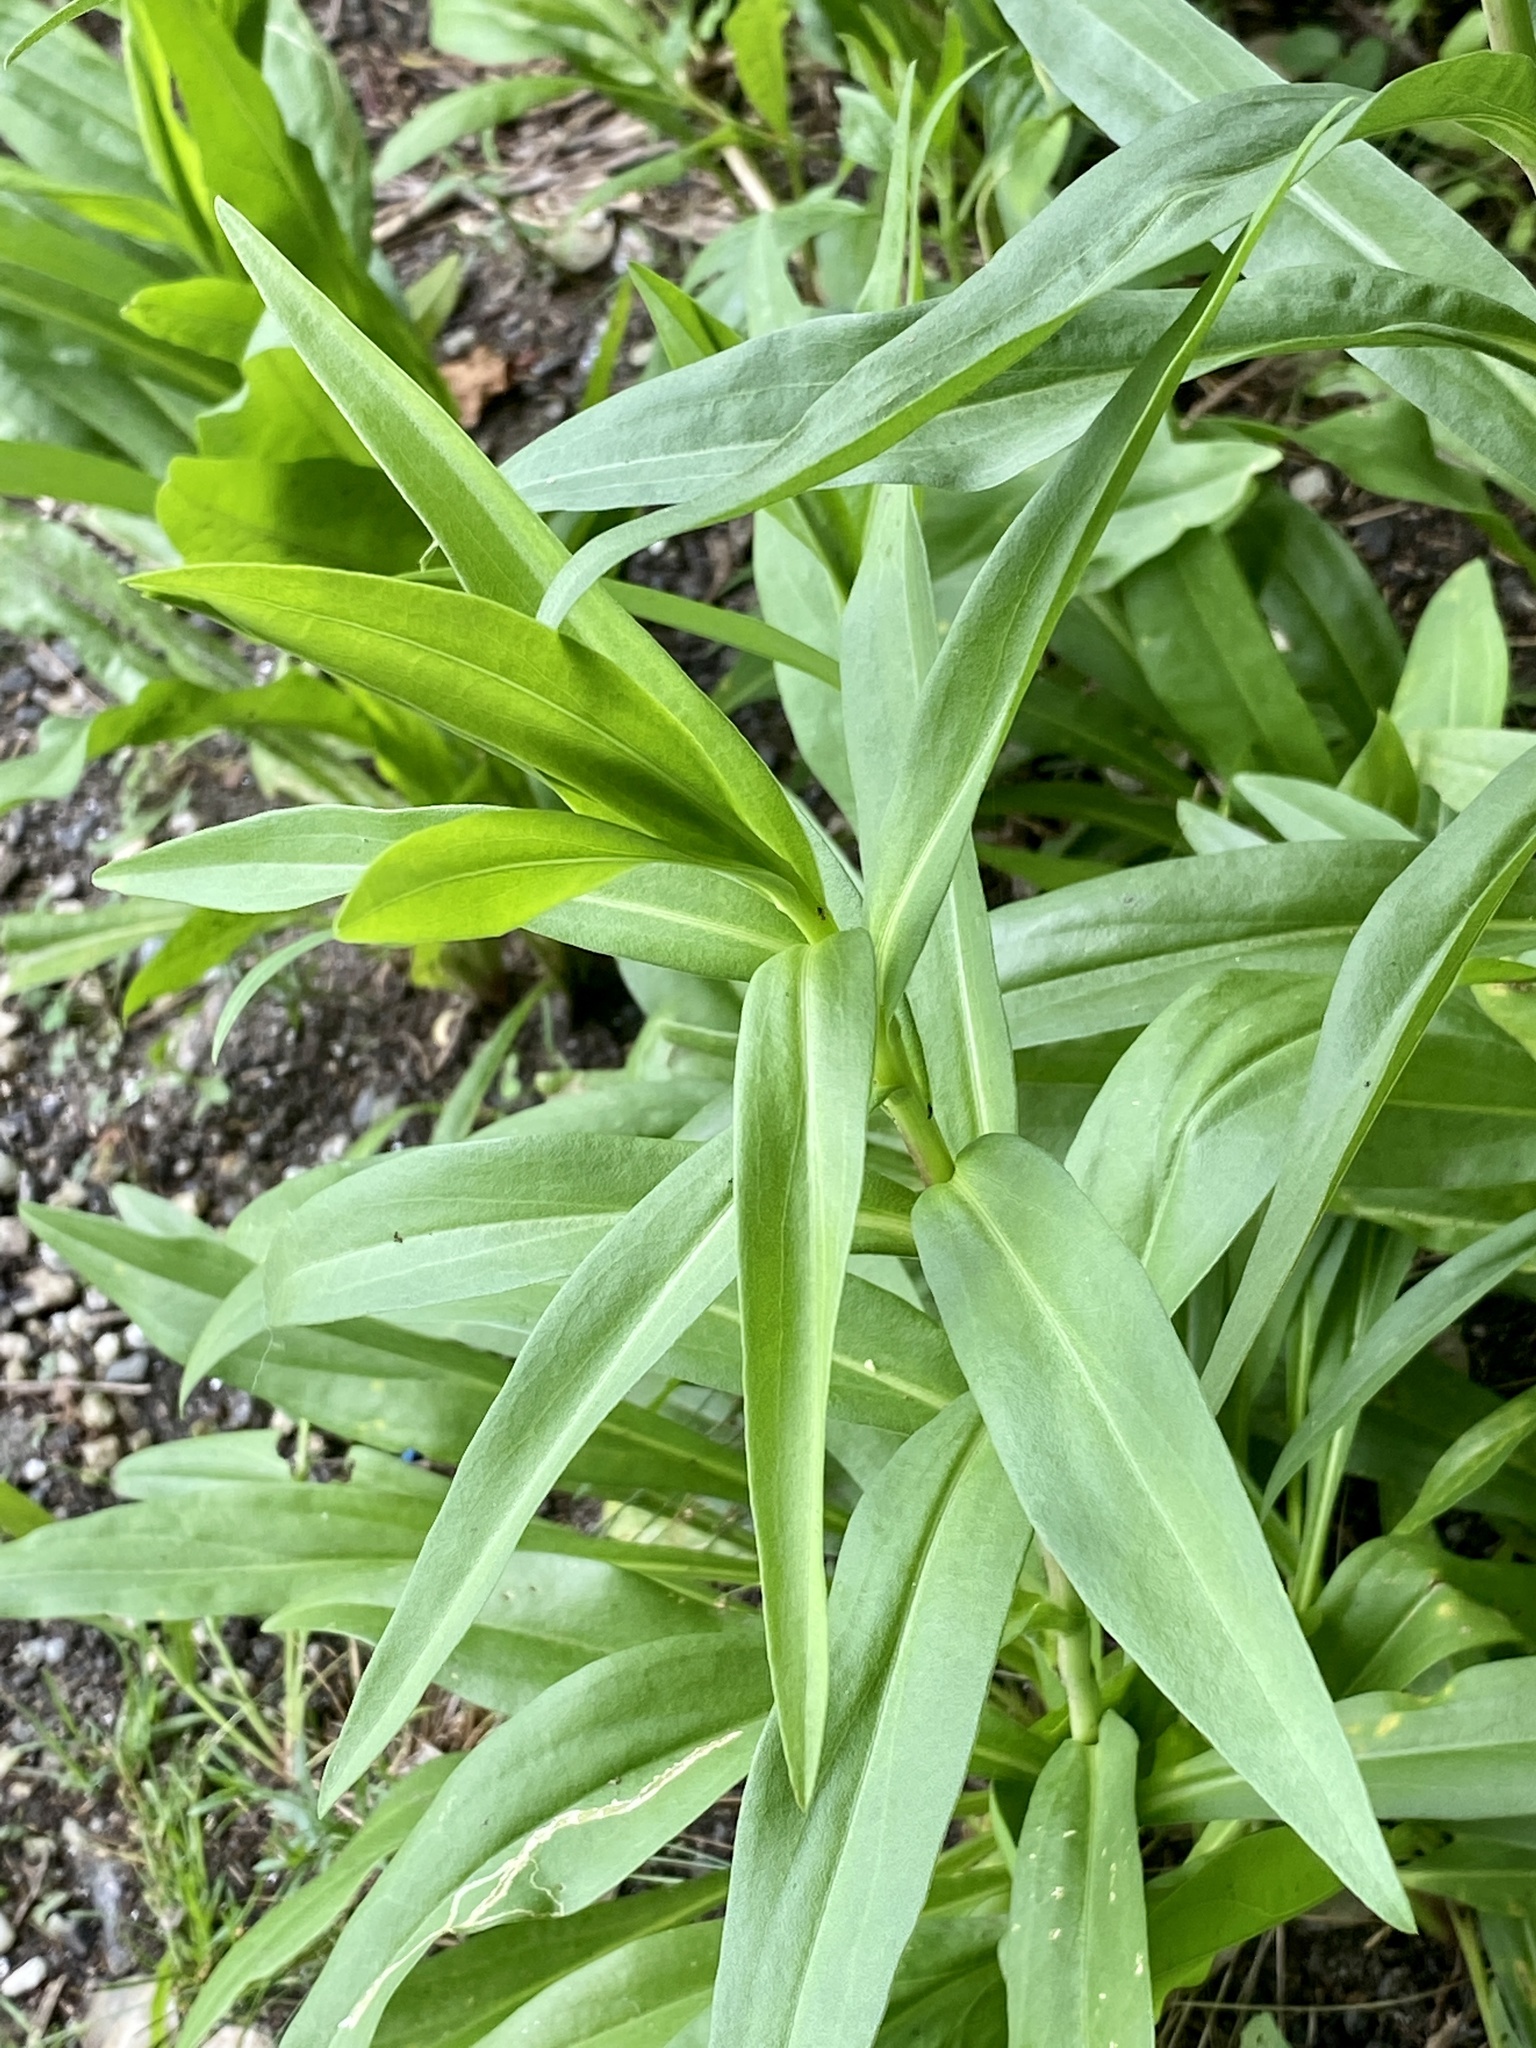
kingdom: Plantae
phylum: Tracheophyta
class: Magnoliopsida
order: Asterales
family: Asteraceae
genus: Solidago
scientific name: Solidago sempervirens
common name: Salt-marsh goldenrod
